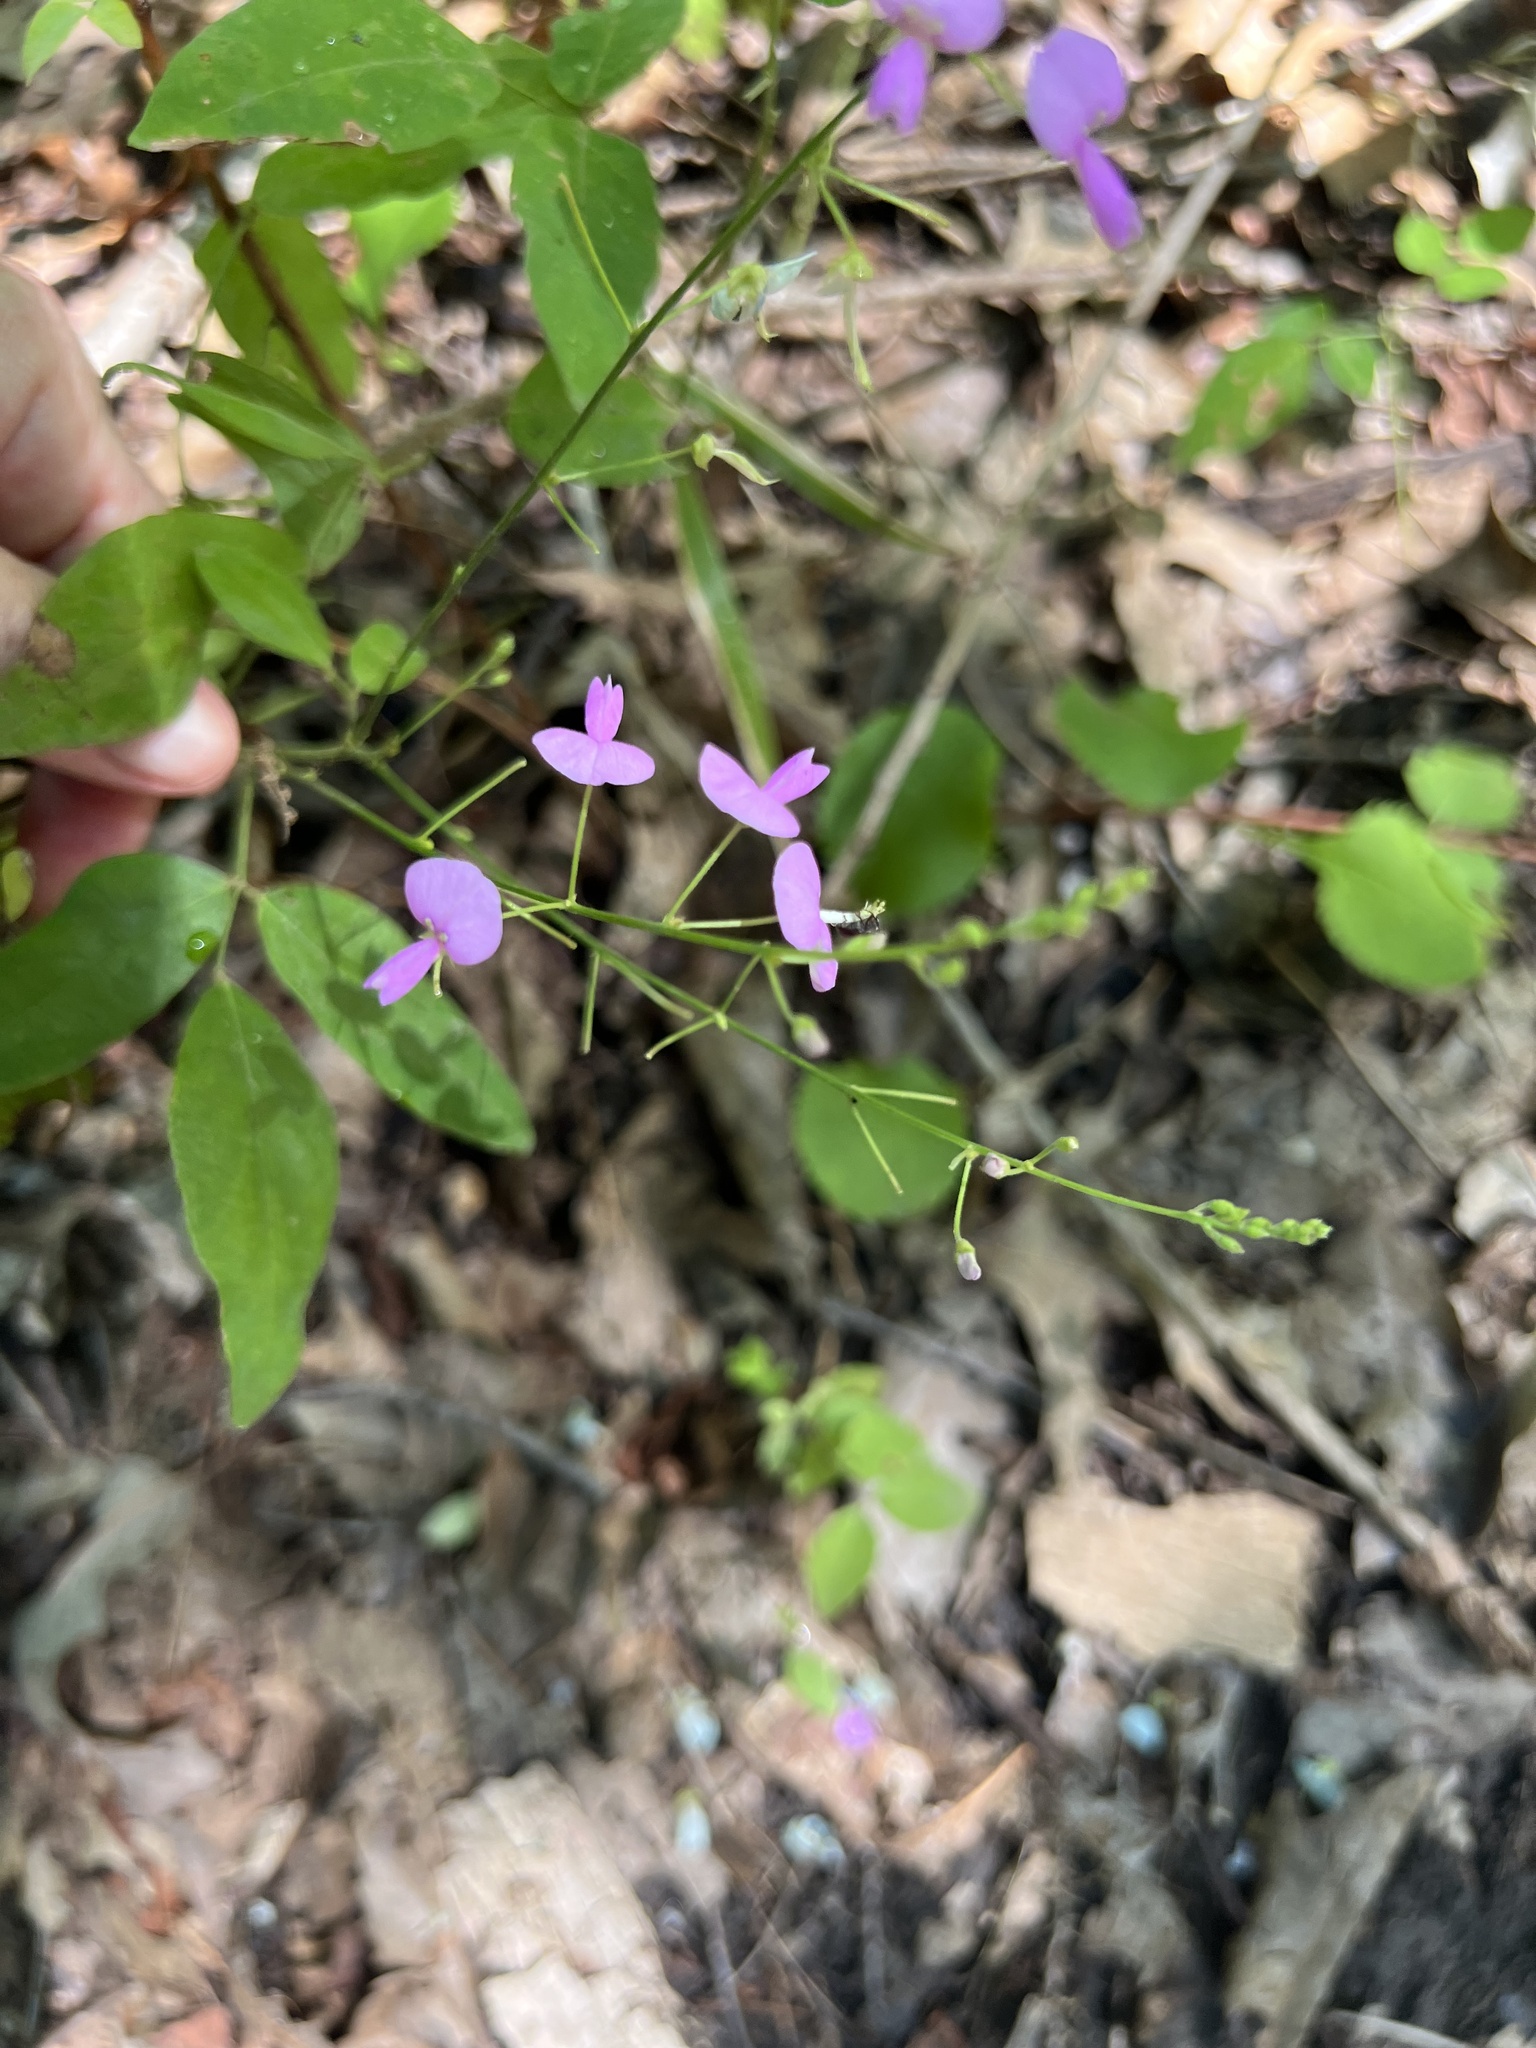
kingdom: Plantae
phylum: Tracheophyta
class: Magnoliopsida
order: Fabales
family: Fabaceae
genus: Desmodium
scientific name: Desmodium paniculatum
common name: Panicled tick-clover
